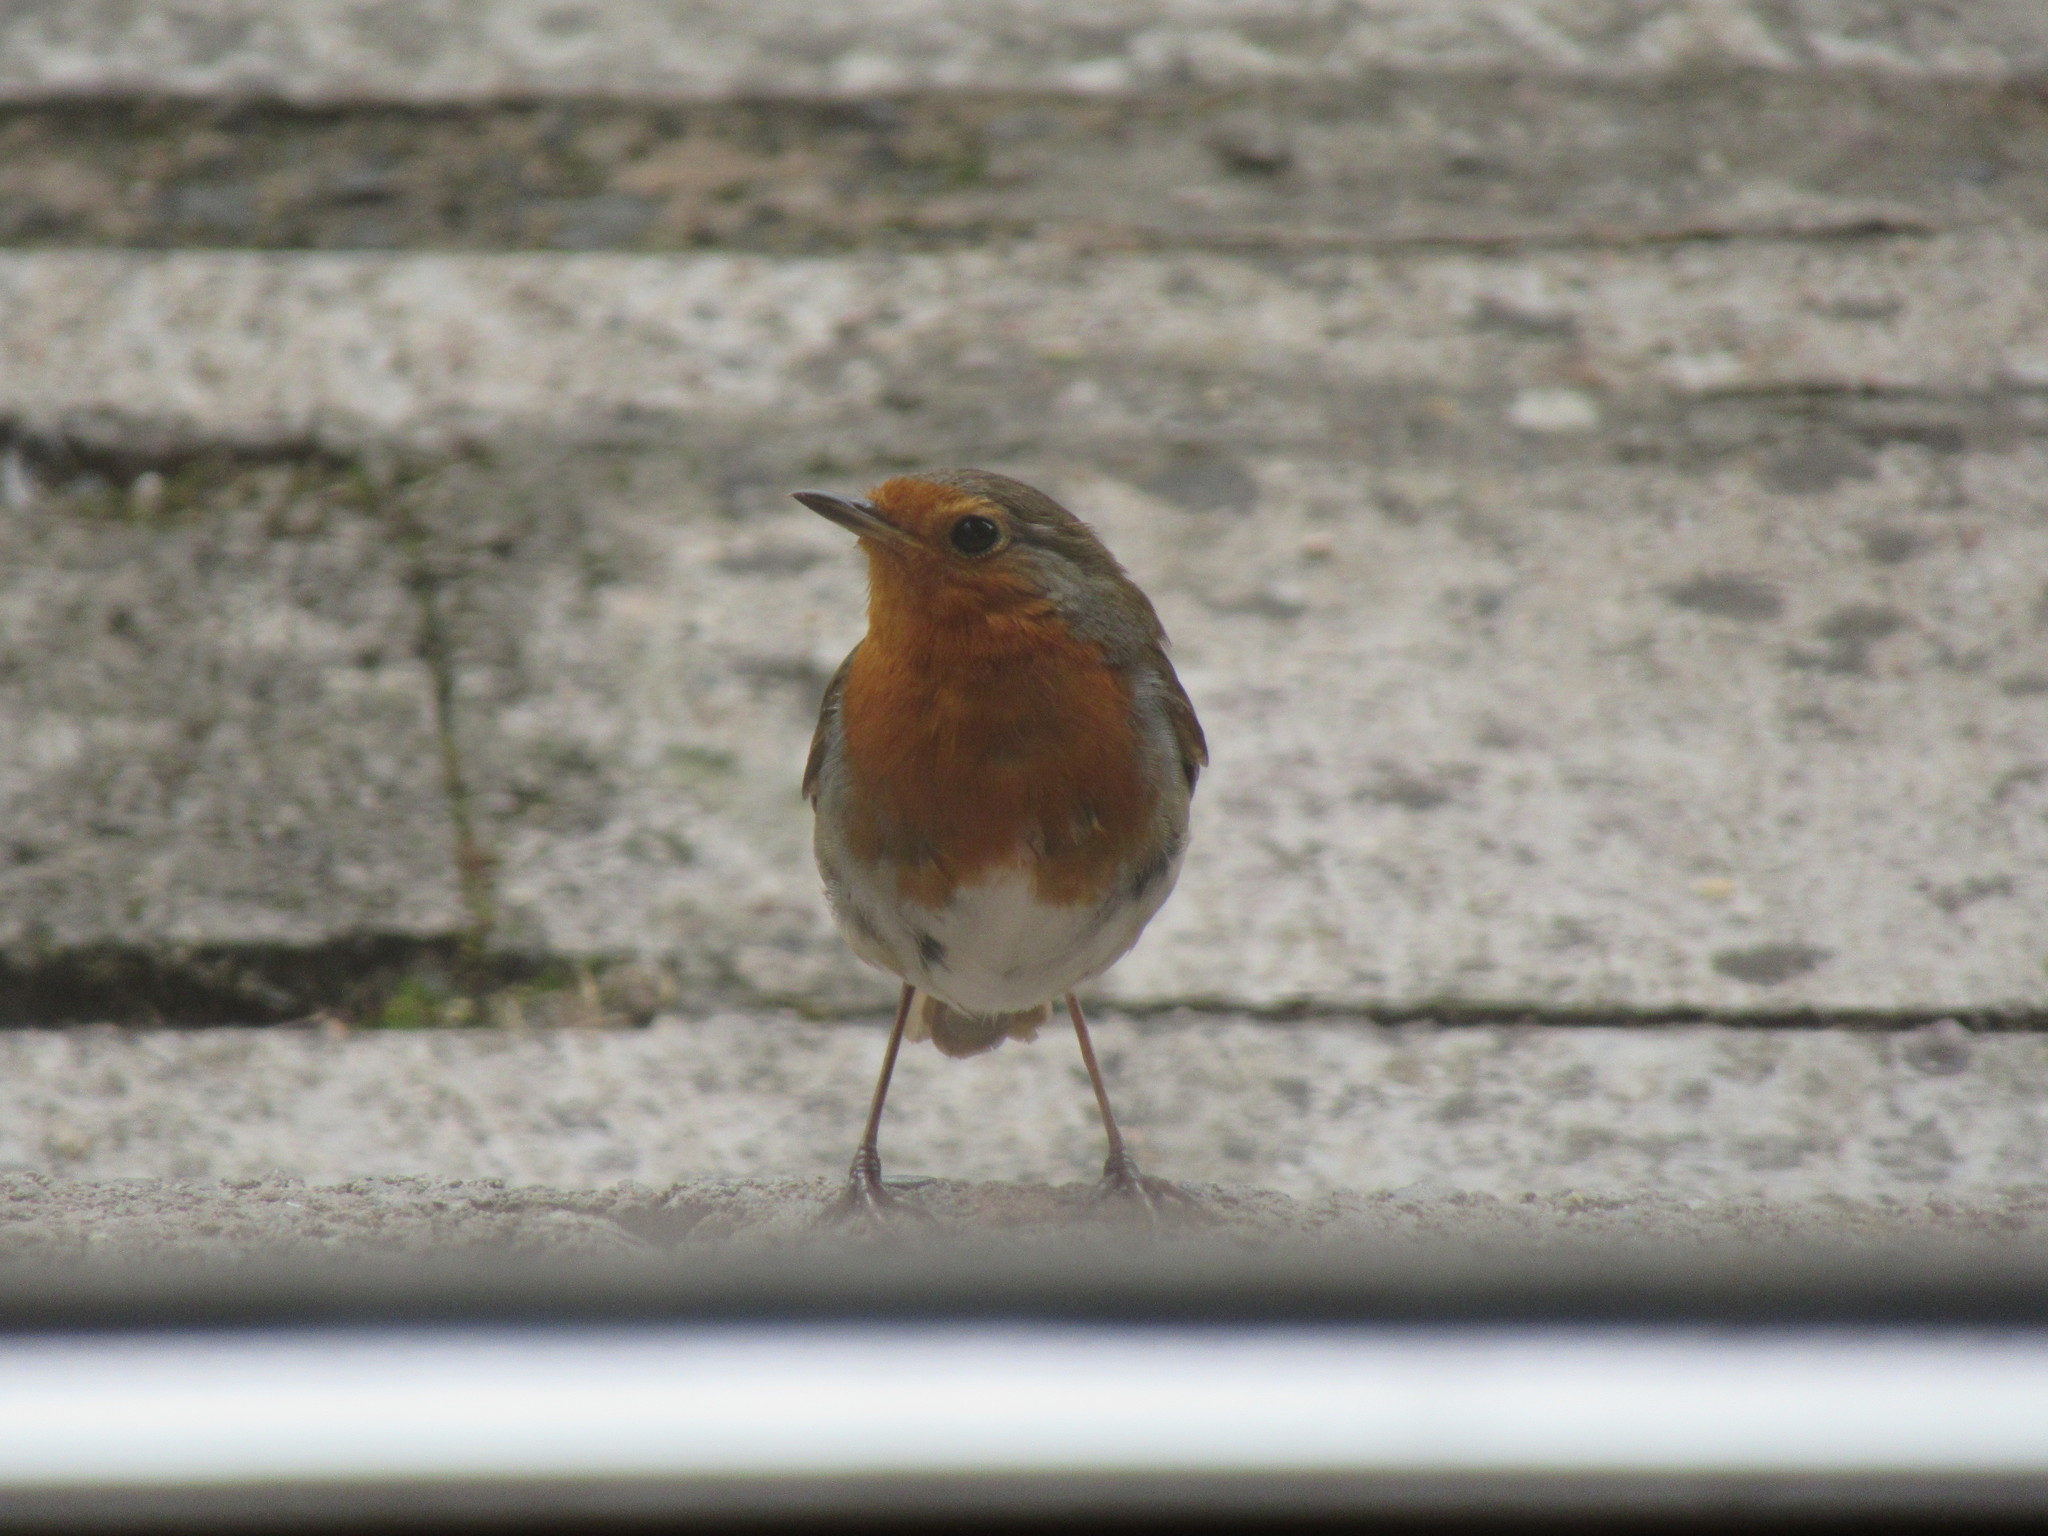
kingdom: Animalia
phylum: Chordata
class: Aves
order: Passeriformes
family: Muscicapidae
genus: Erithacus
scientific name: Erithacus rubecula
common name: European robin
